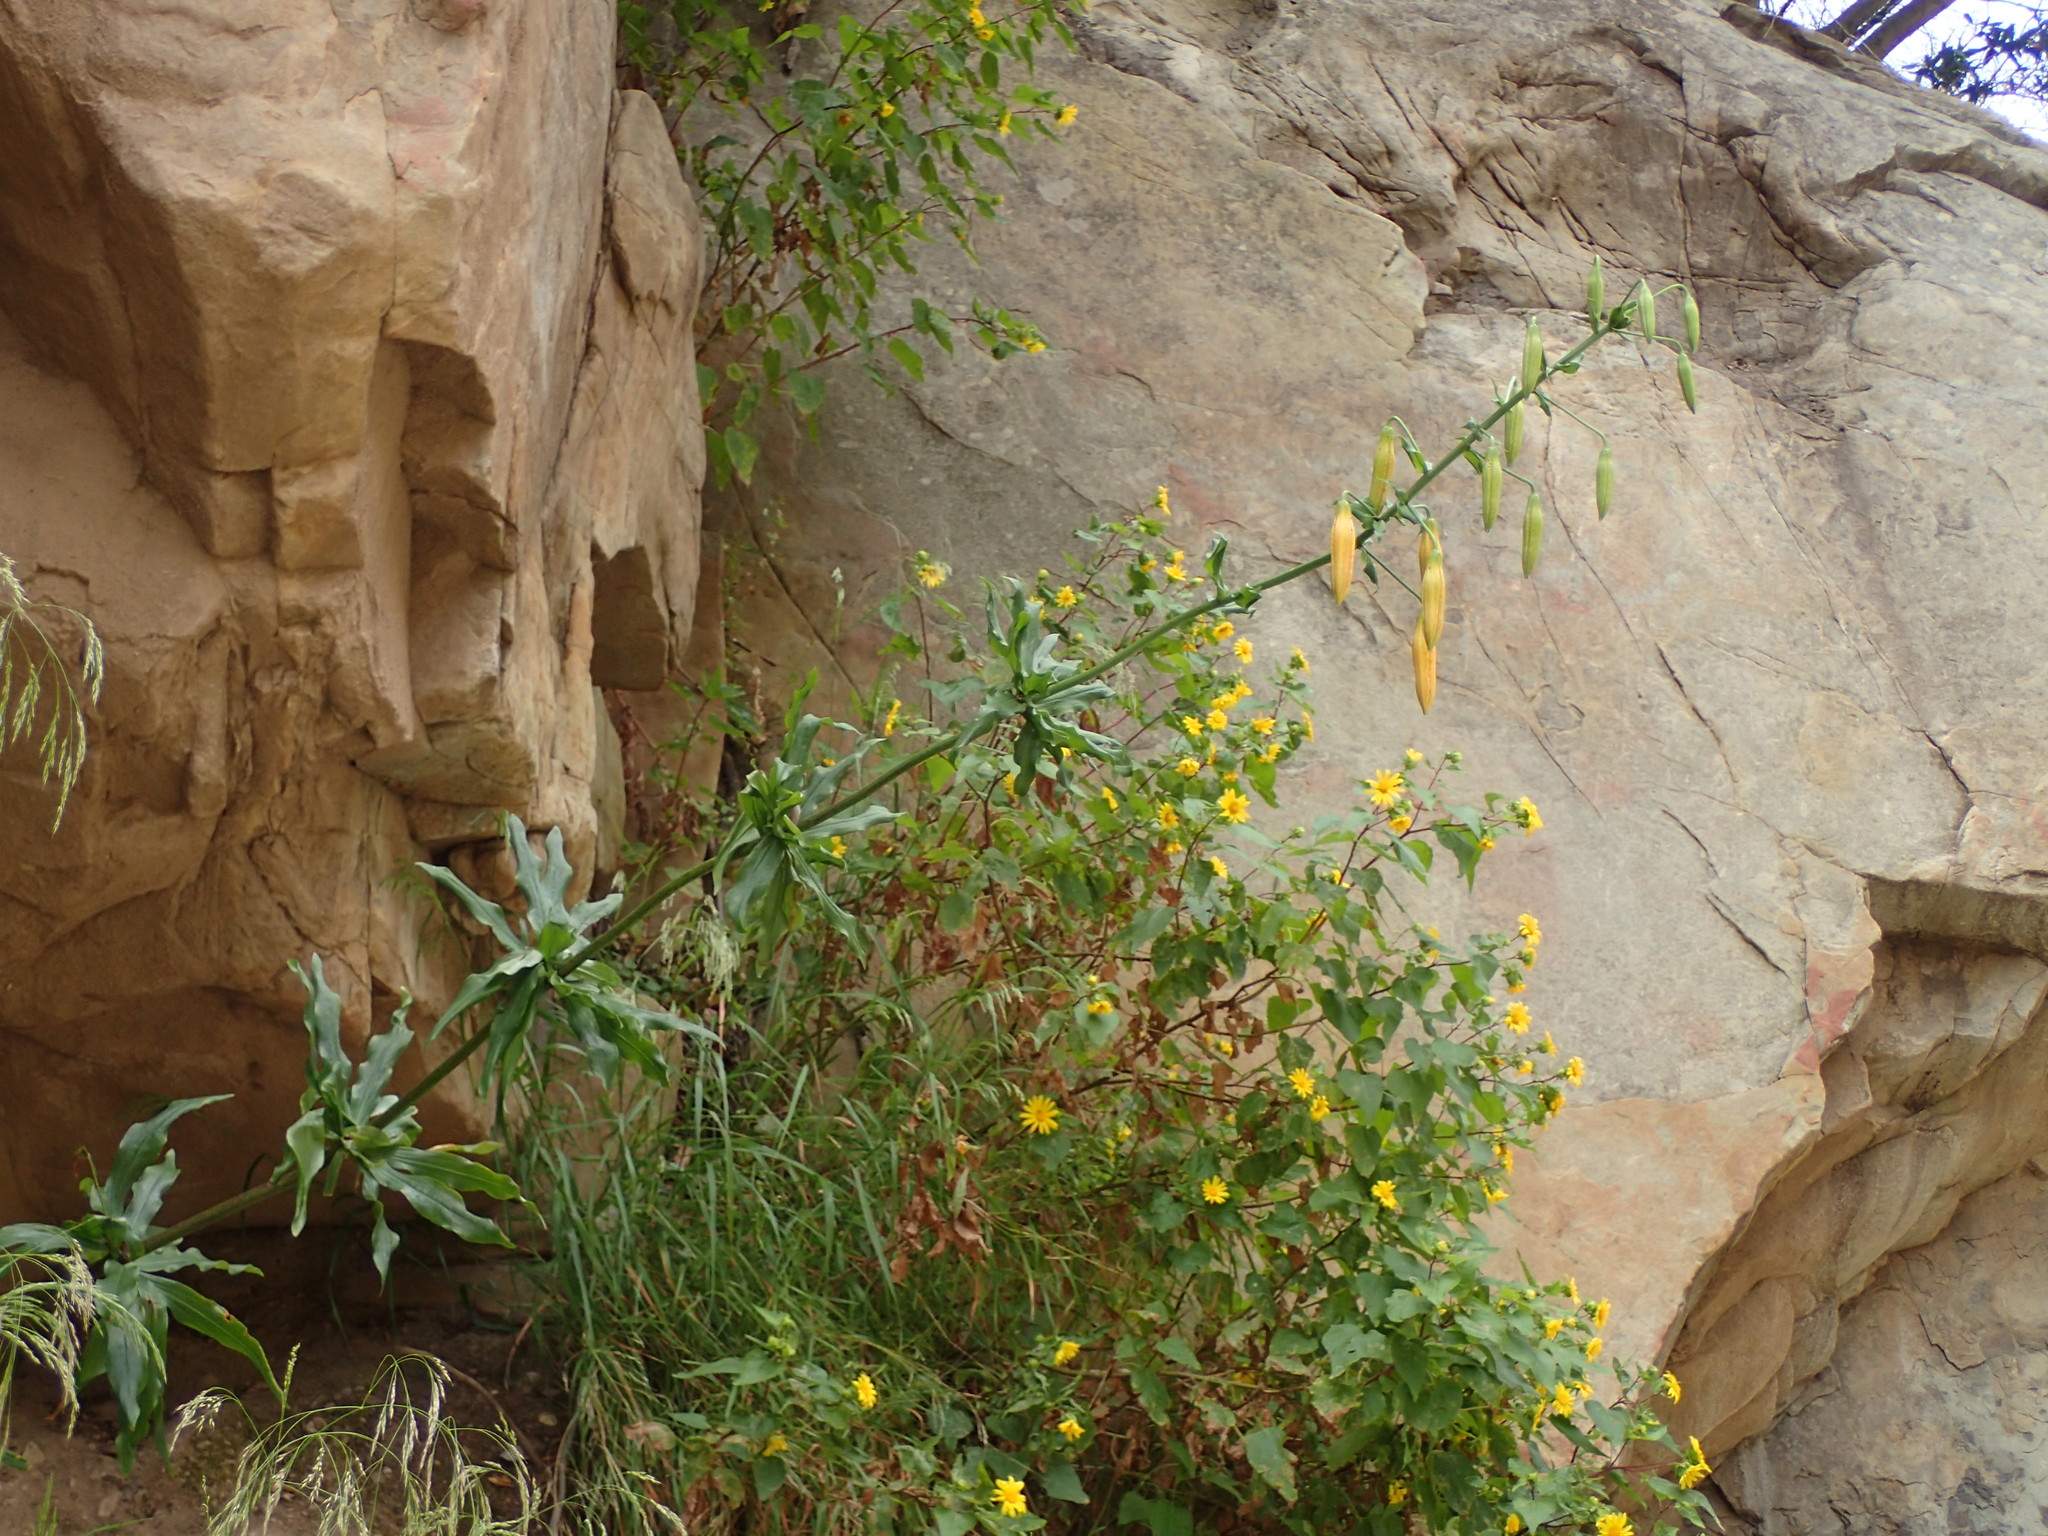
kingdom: Plantae
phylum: Tracheophyta
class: Liliopsida
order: Liliales
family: Liliaceae
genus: Lilium
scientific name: Lilium humboldtii
